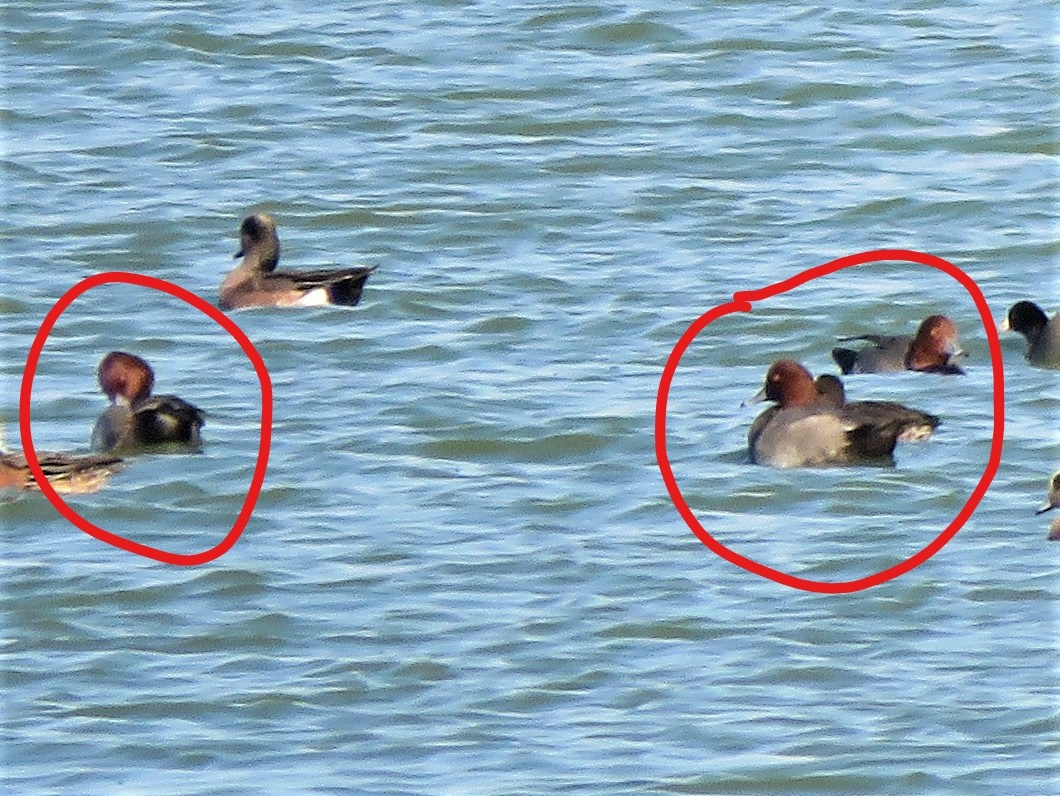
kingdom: Animalia
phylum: Chordata
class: Aves
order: Anseriformes
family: Anatidae
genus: Aythya
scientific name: Aythya americana
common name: Redhead
